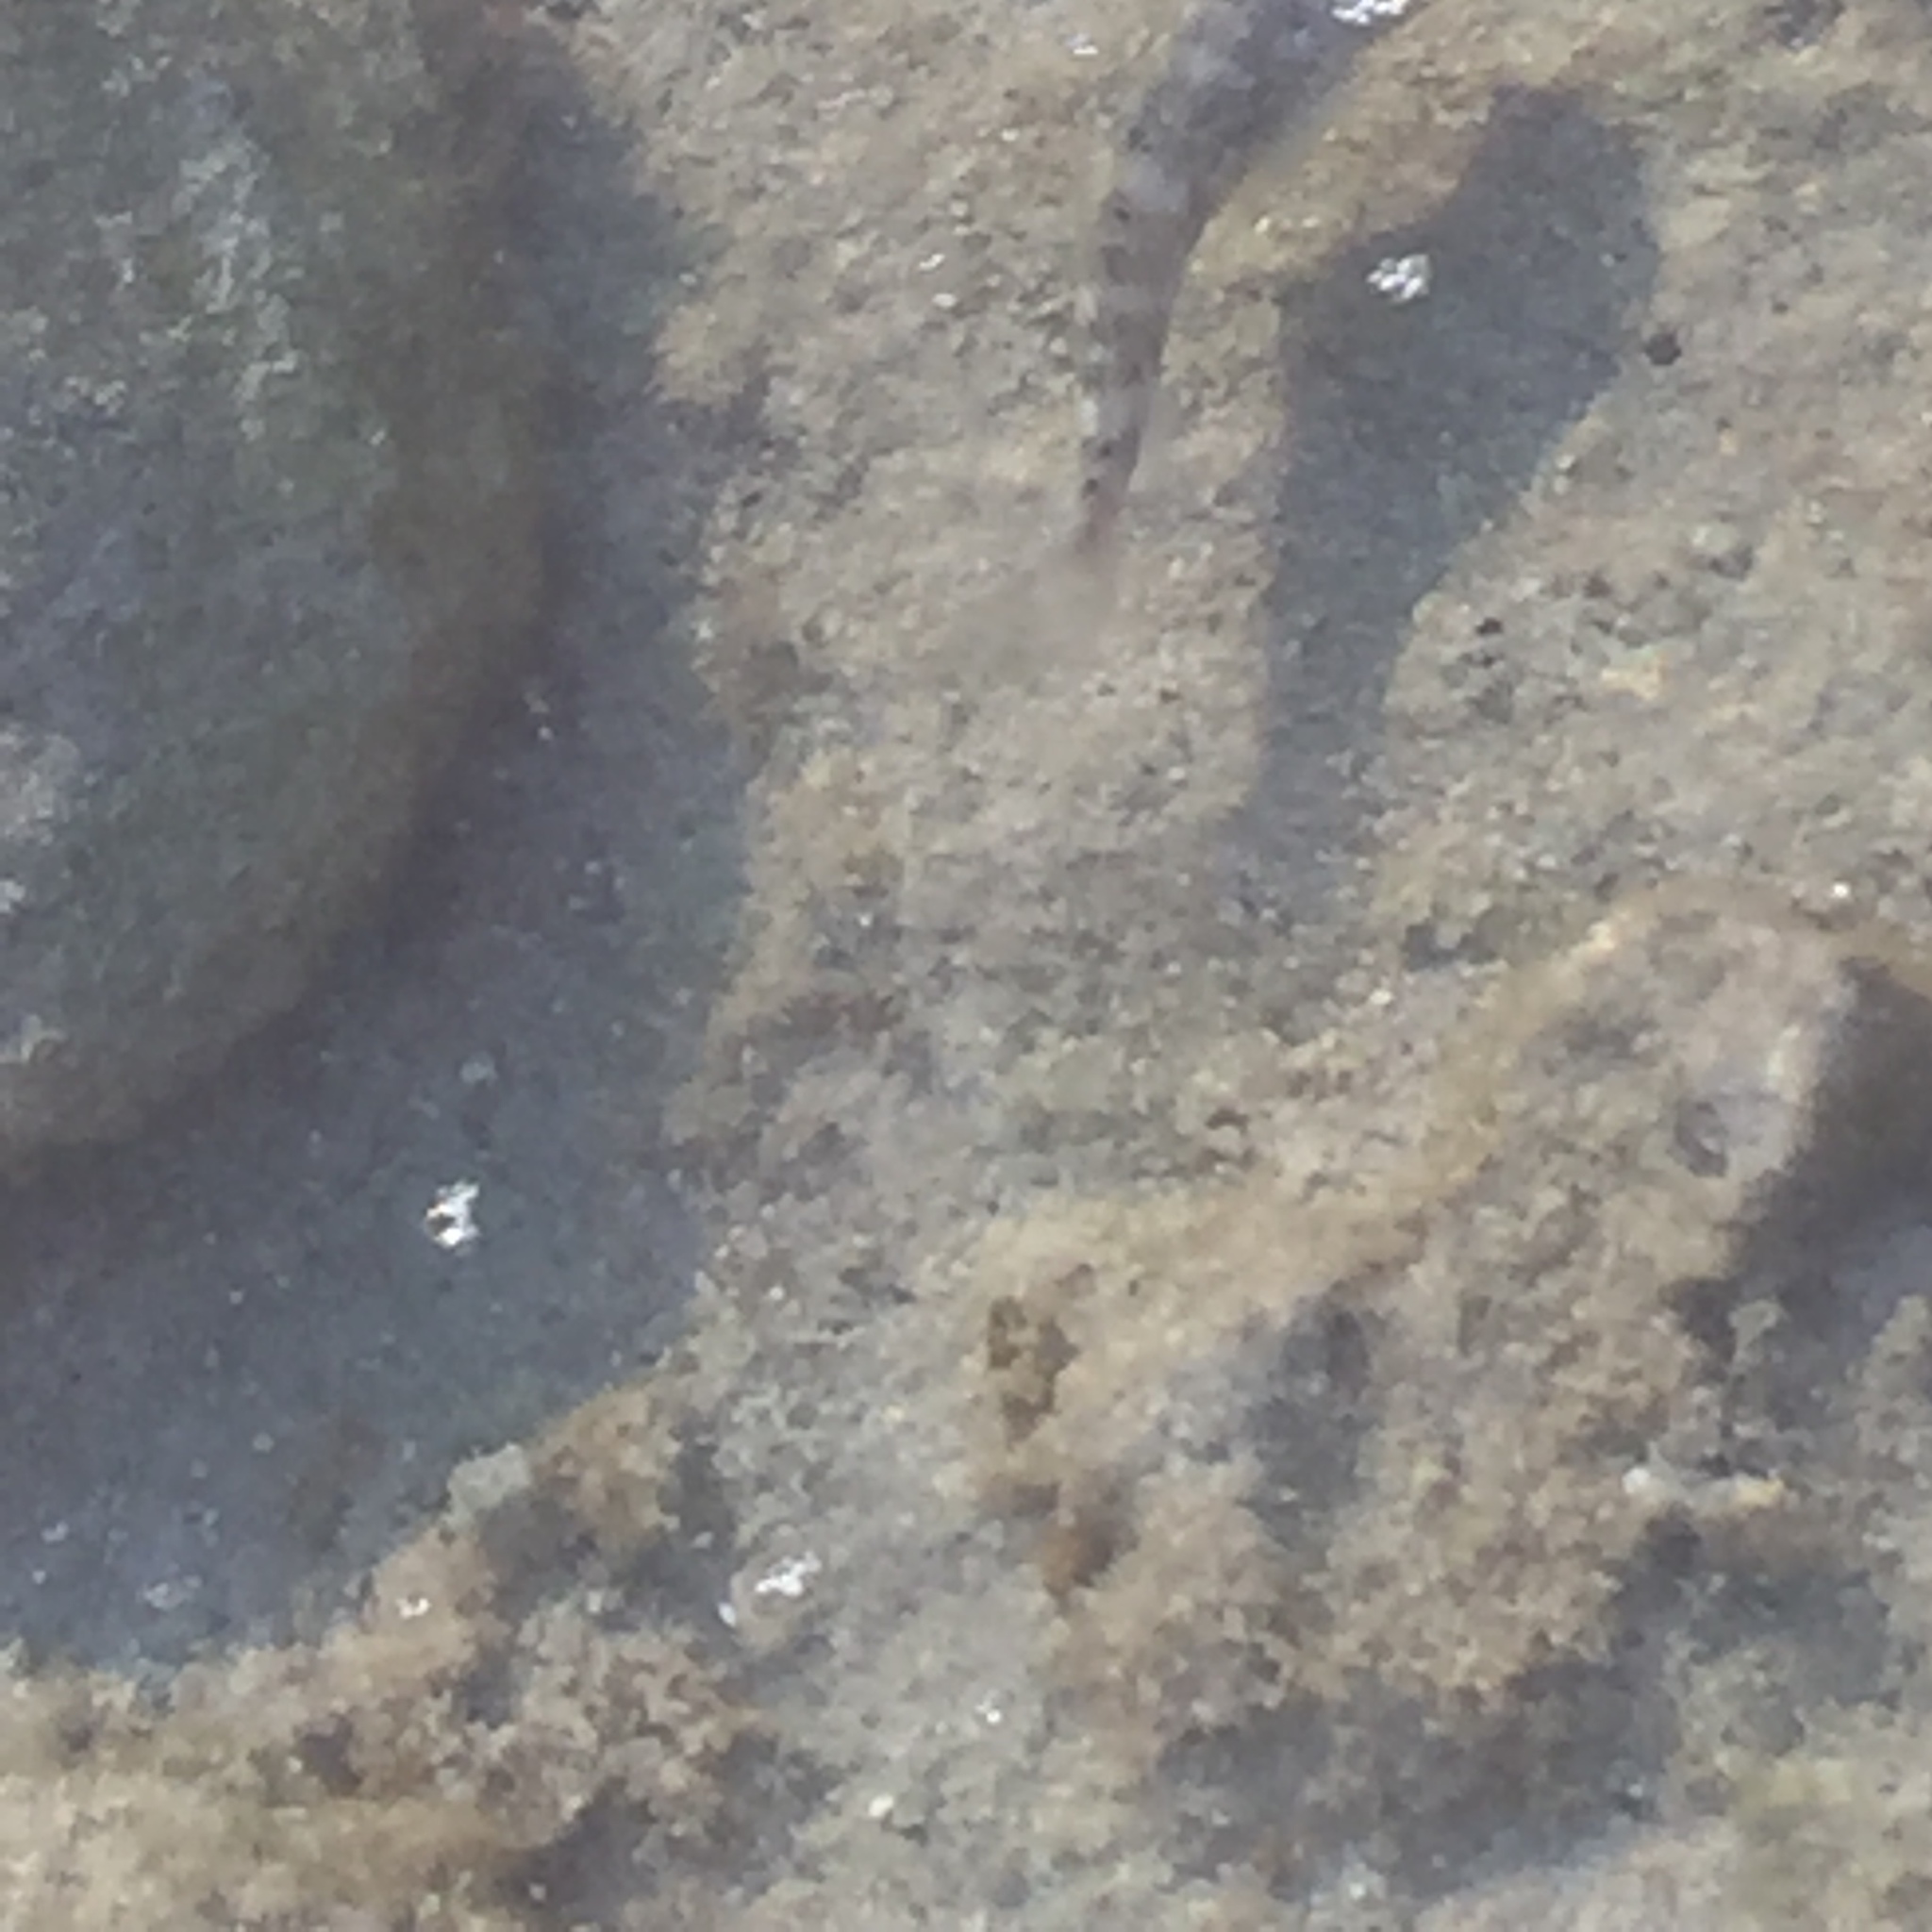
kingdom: Animalia
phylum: Chordata
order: Perciformes
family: Gobiidae
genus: Mauligobius
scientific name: Mauligobius maderensis
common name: Rock goby
